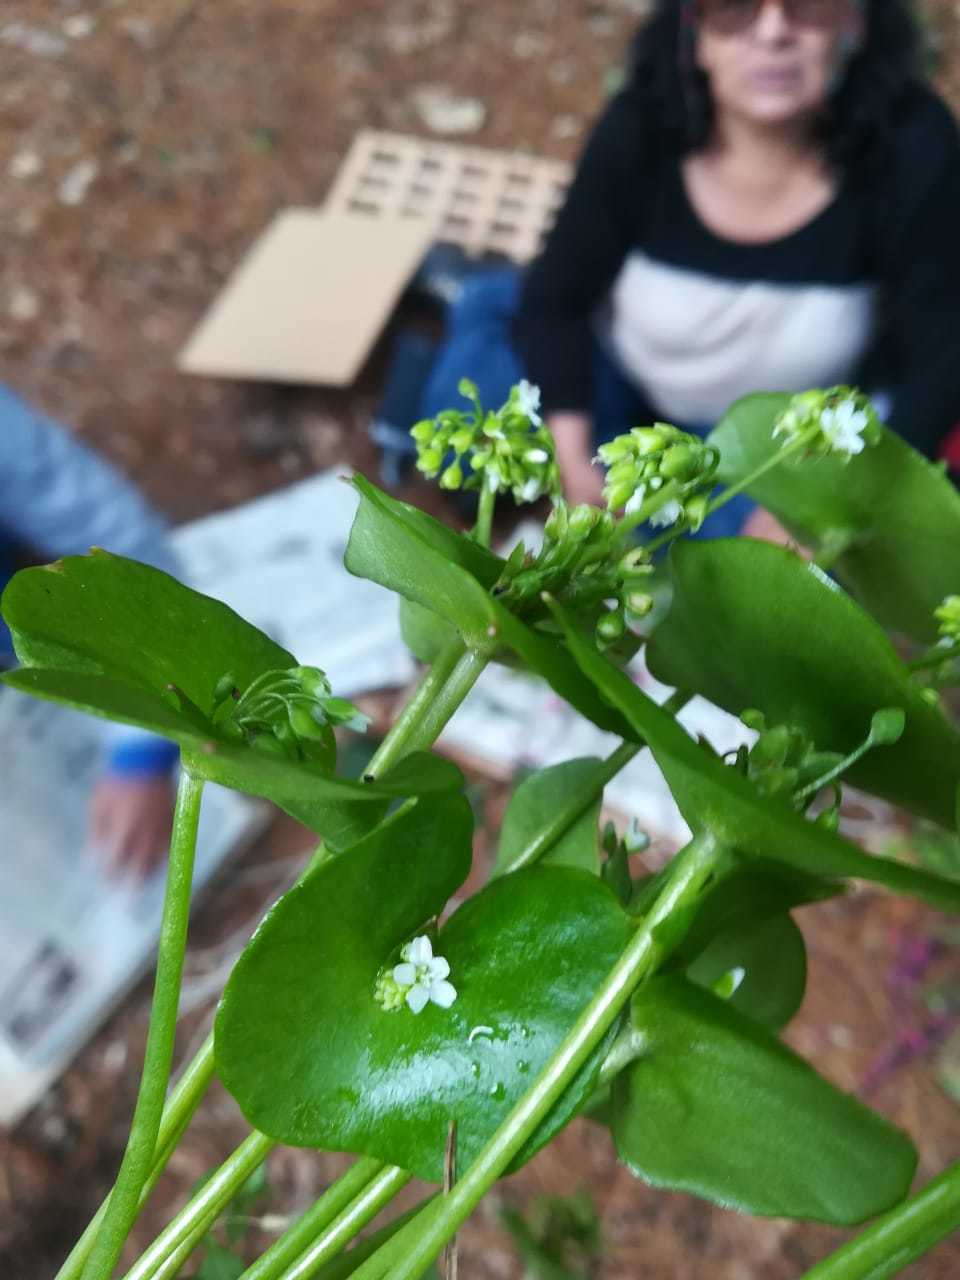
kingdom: Plantae
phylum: Tracheophyta
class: Magnoliopsida
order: Caryophyllales
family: Montiaceae
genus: Claytonia
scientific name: Claytonia perfoliata
